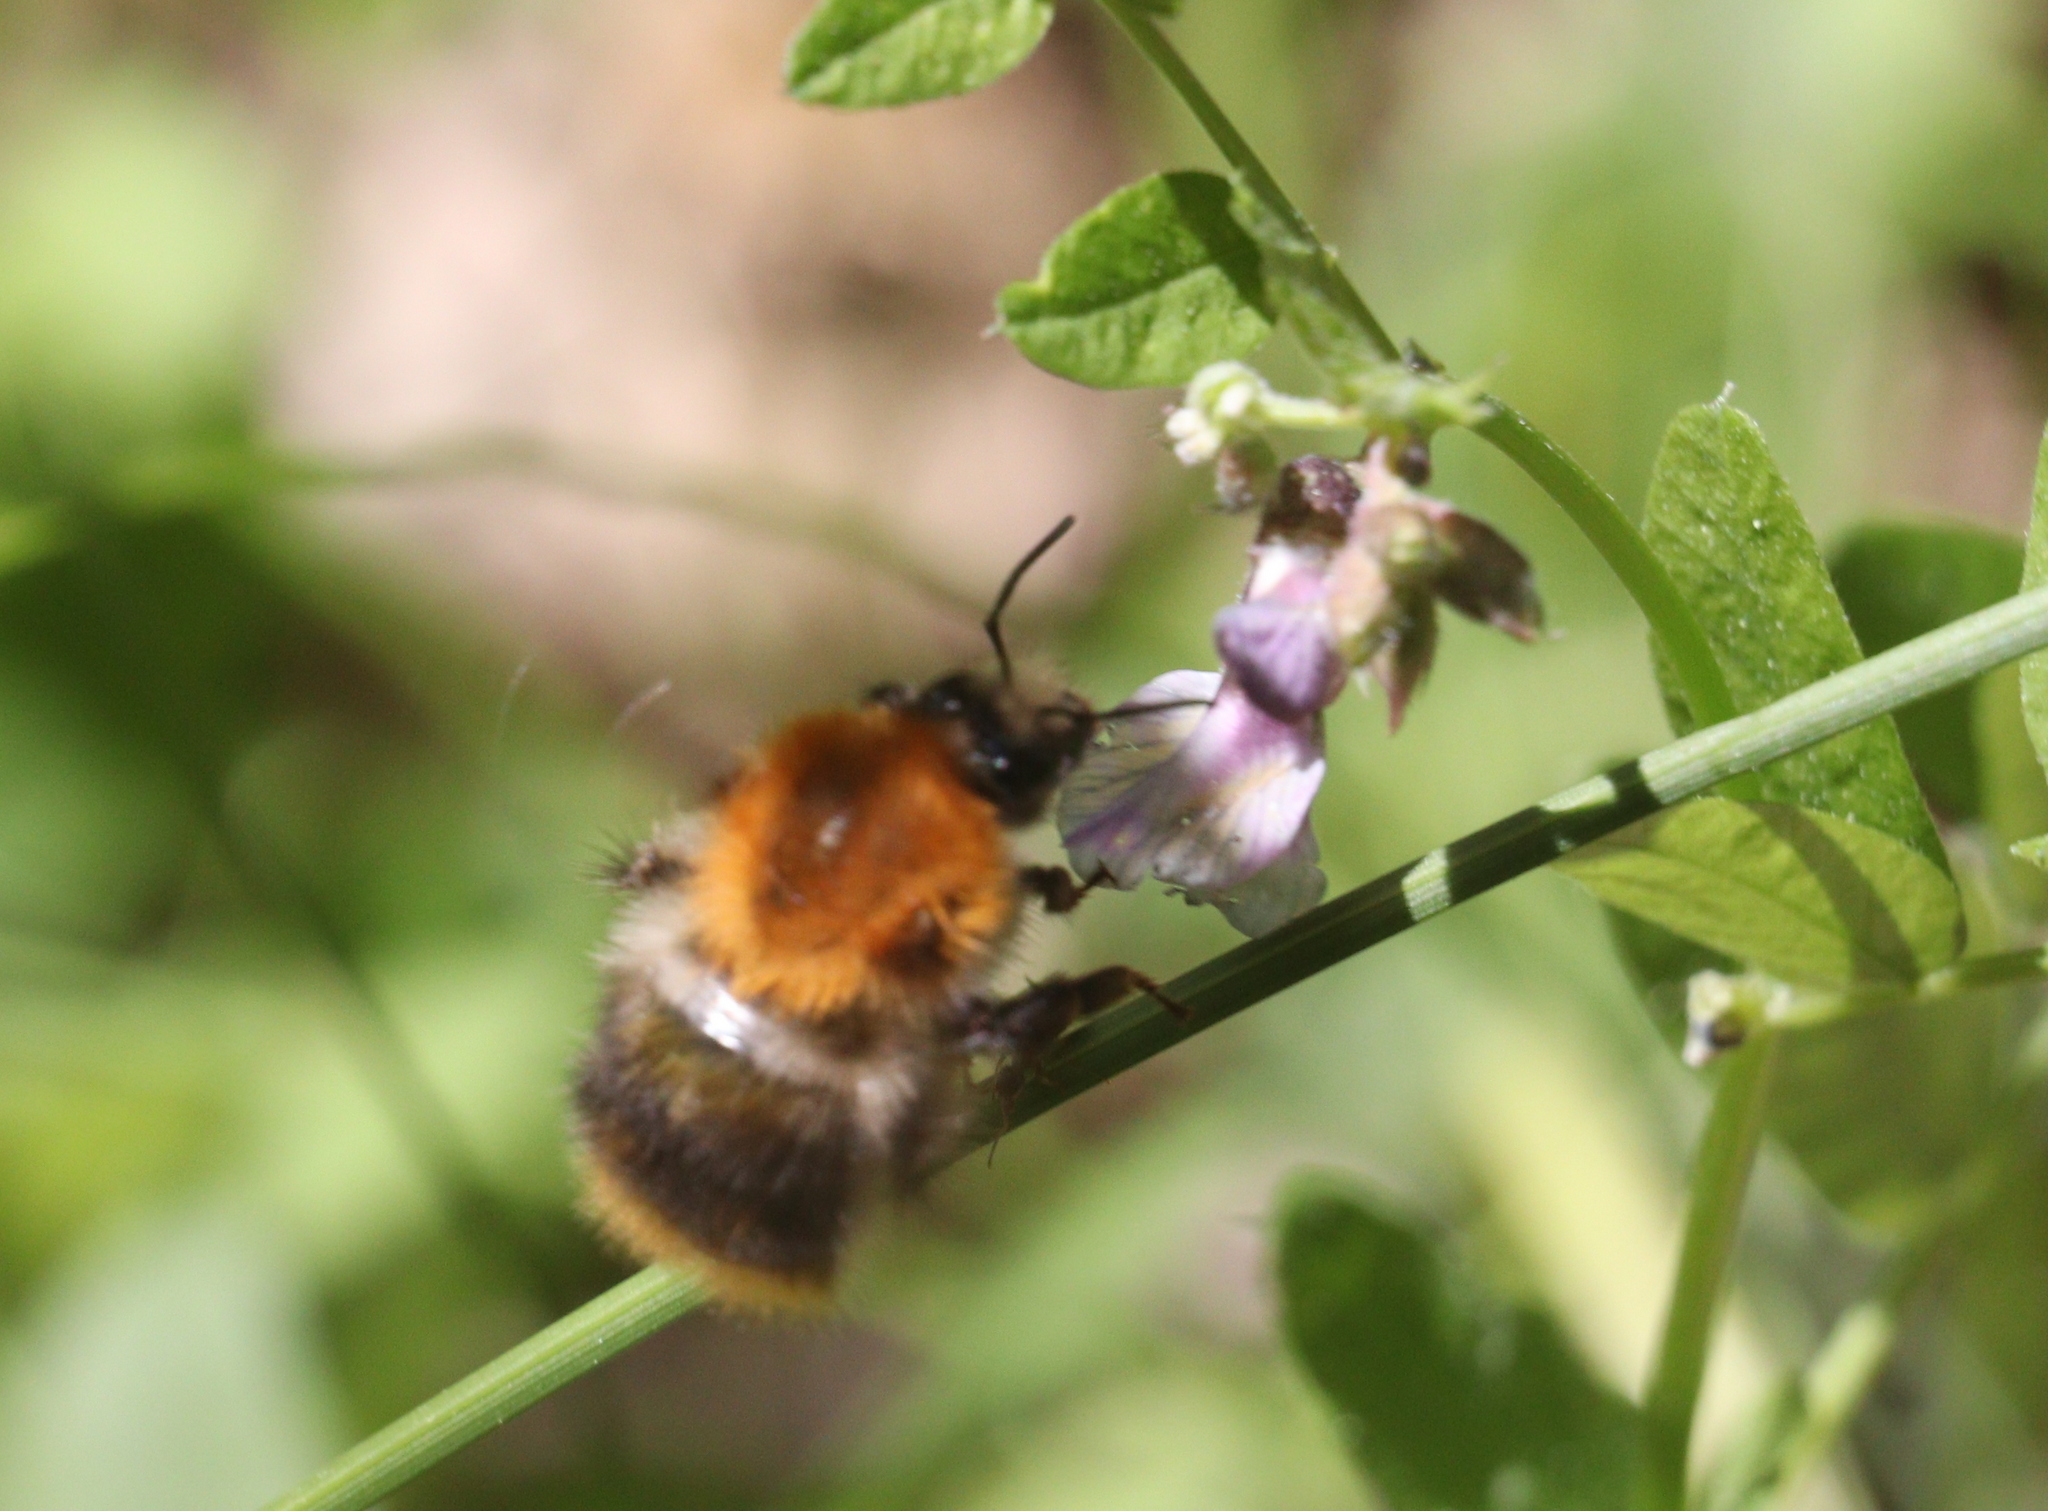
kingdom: Animalia
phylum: Arthropoda
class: Insecta
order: Hymenoptera
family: Apidae
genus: Bombus
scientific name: Bombus pascuorum
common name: Common carder bee
